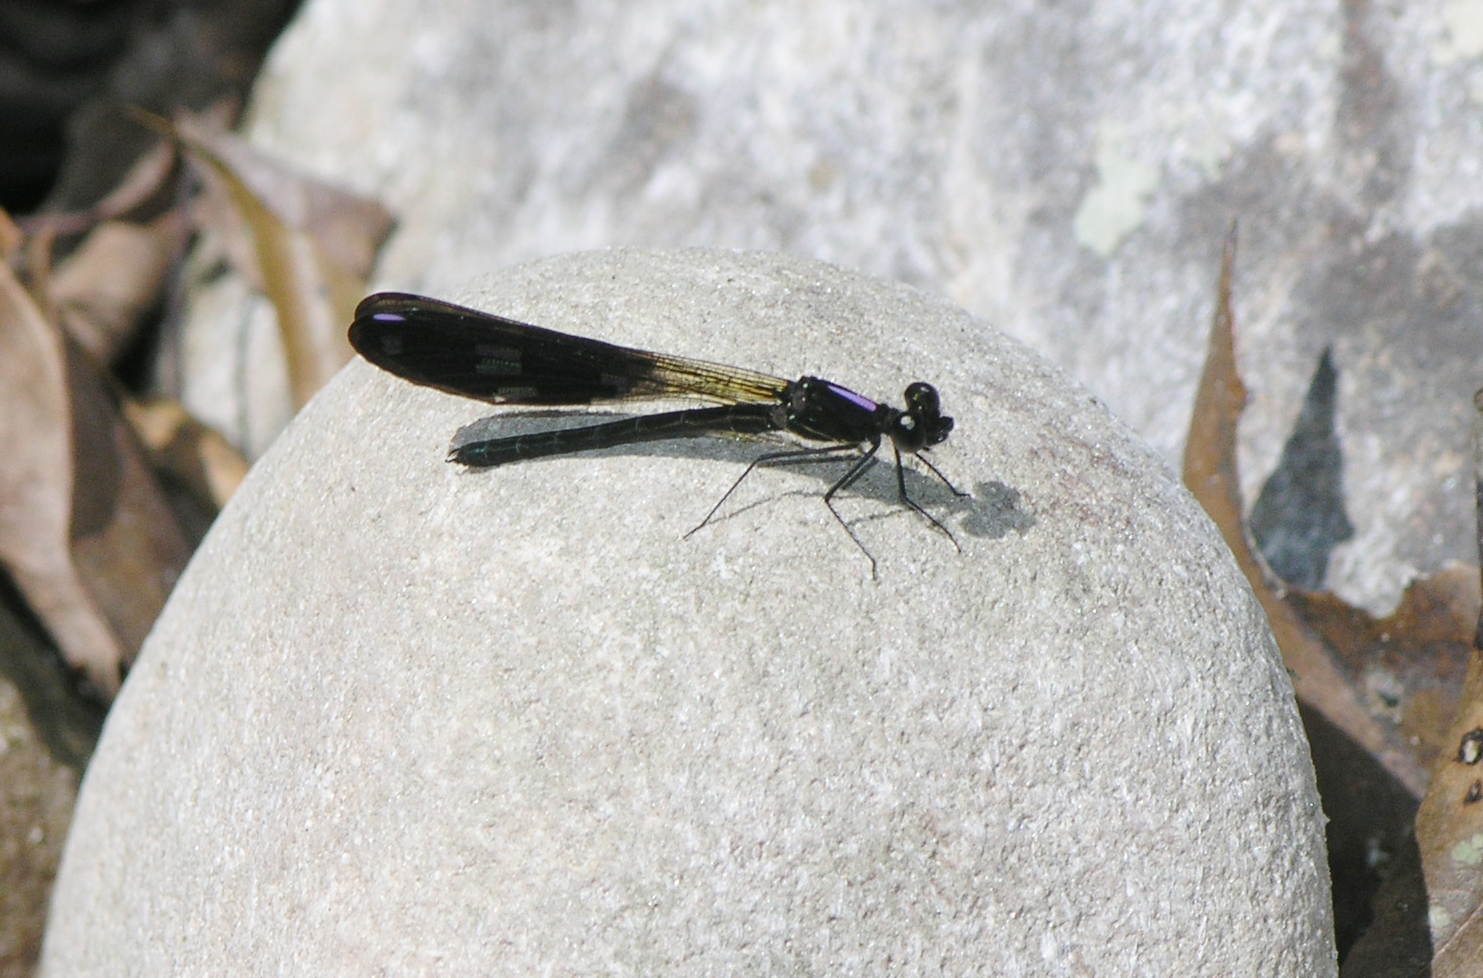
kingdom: Animalia
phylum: Arthropoda
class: Insecta
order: Odonata
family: Chlorocyphidae
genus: Aristocypha
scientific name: Aristocypha fenestrella
